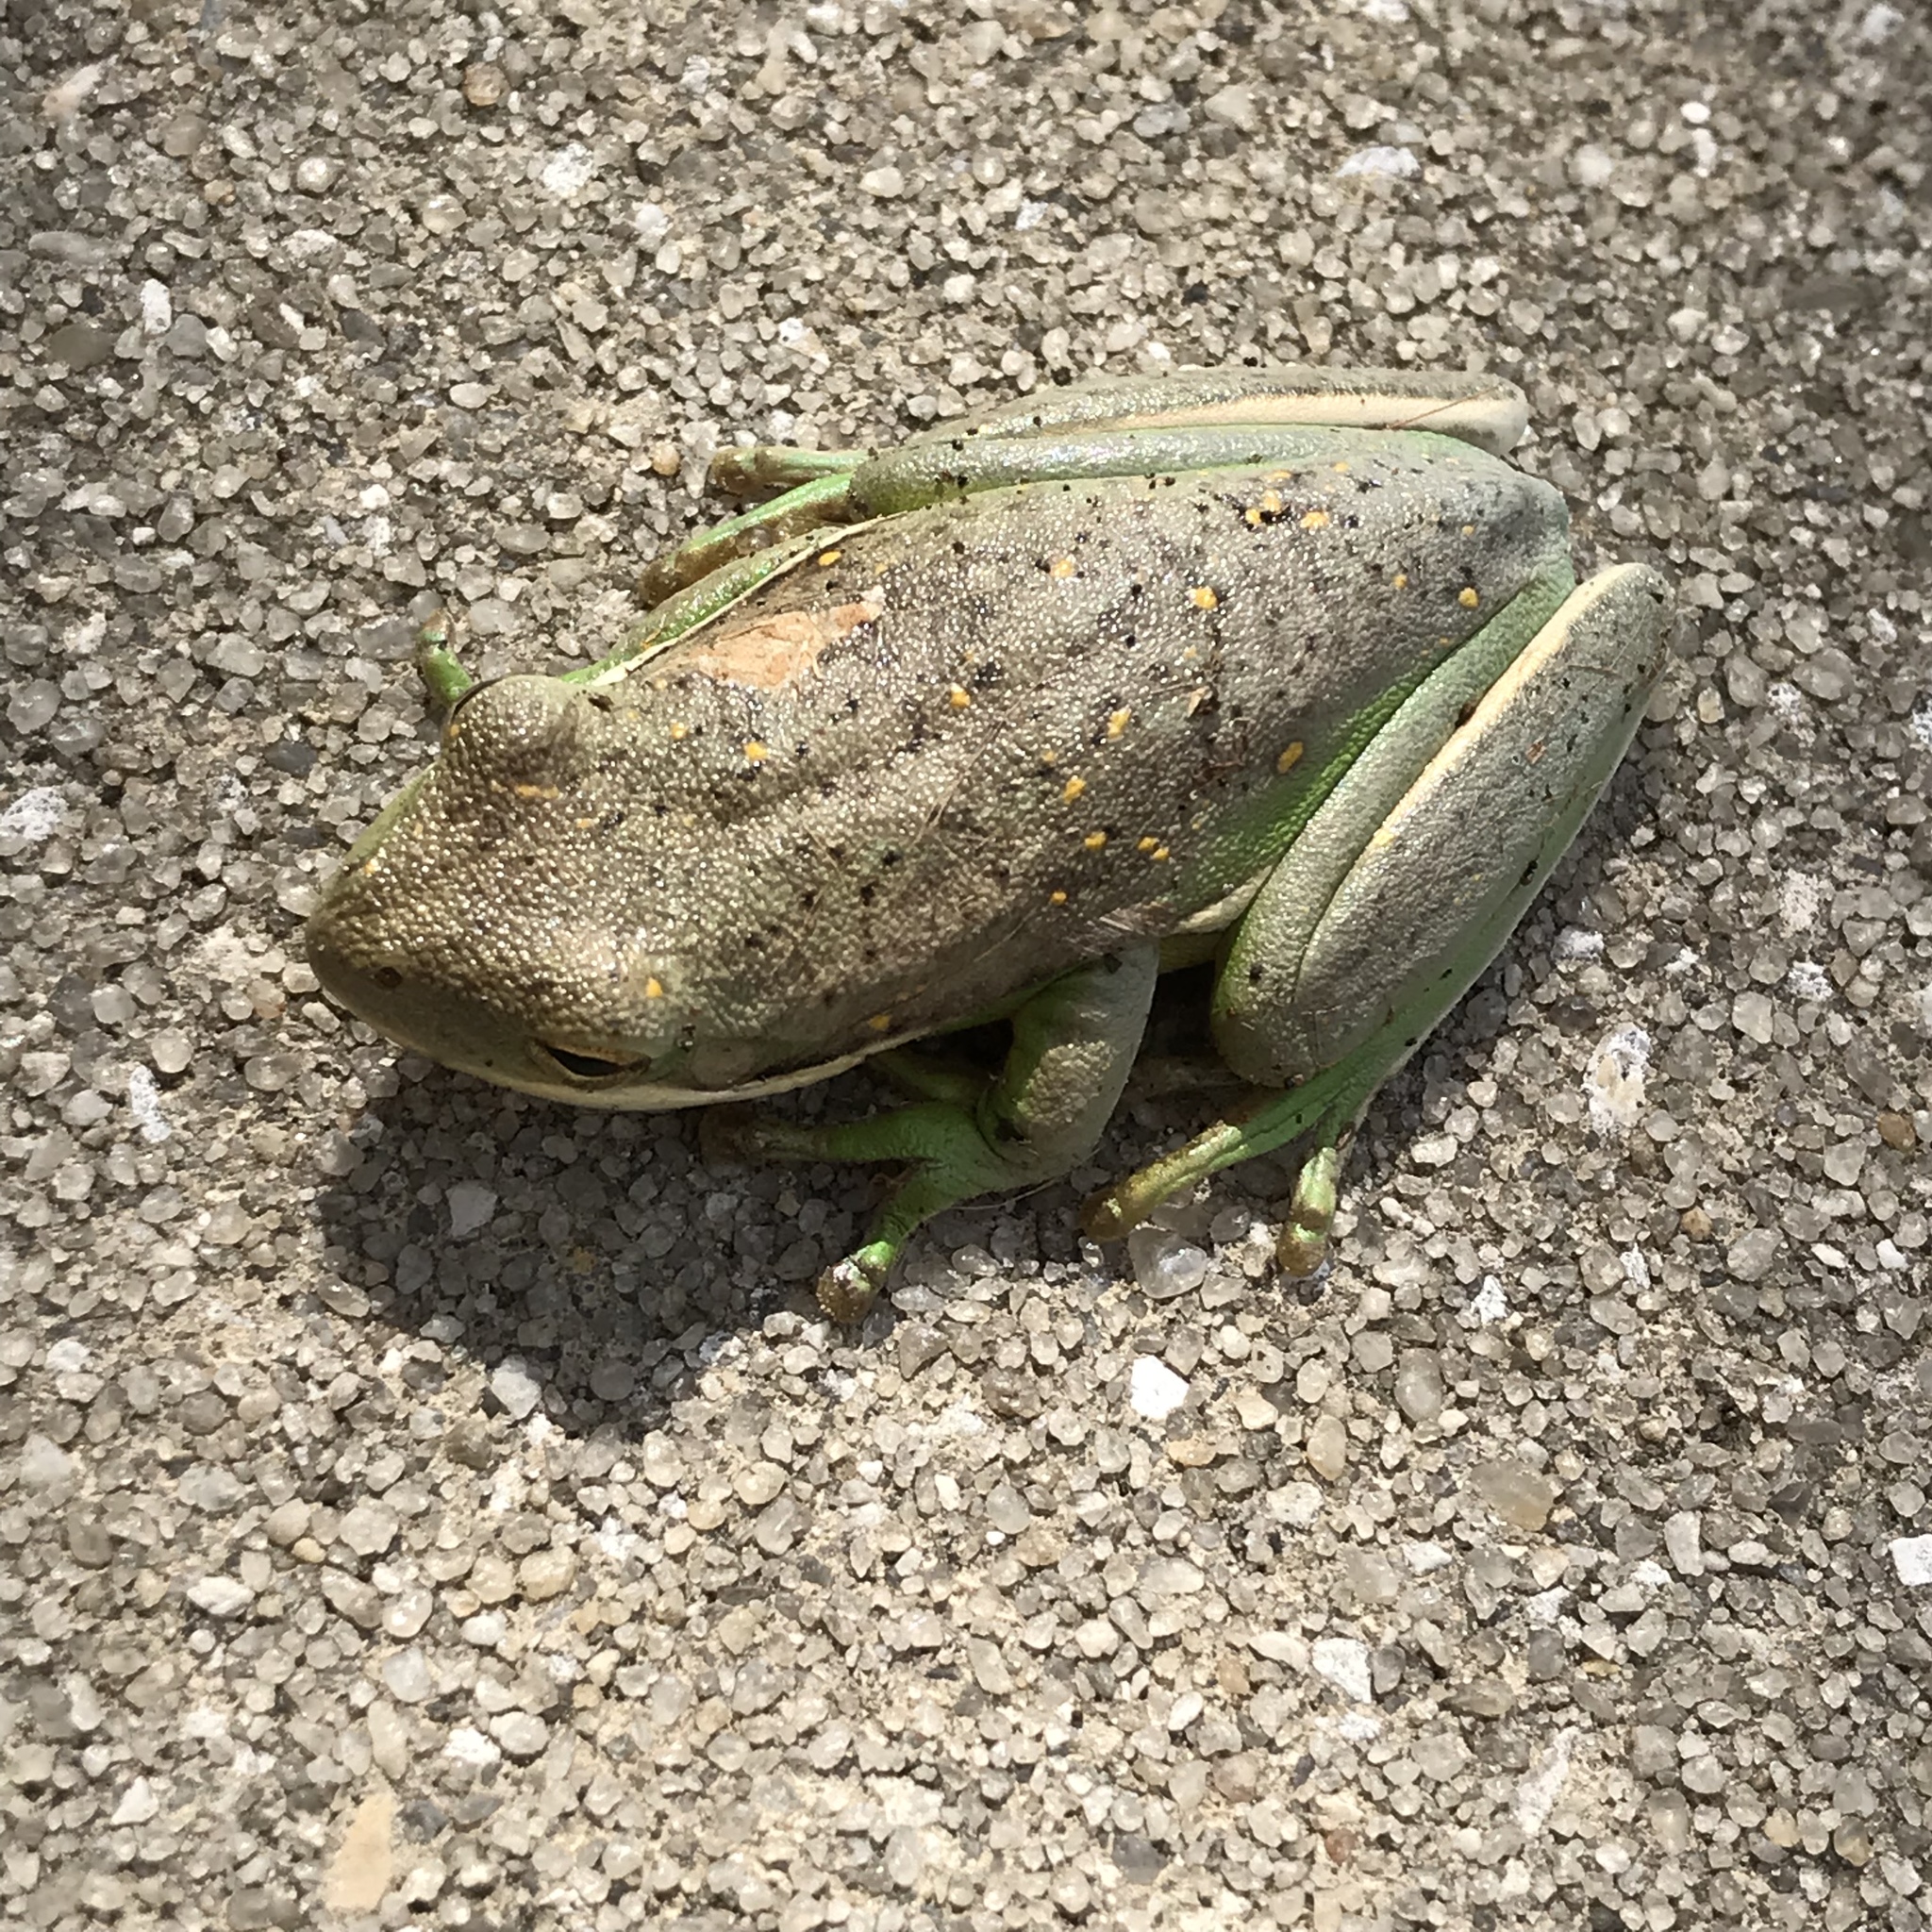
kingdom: Animalia
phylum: Chordata
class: Amphibia
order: Anura
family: Hylidae
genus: Dryophytes
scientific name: Dryophytes cinereus
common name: Green treefrog
